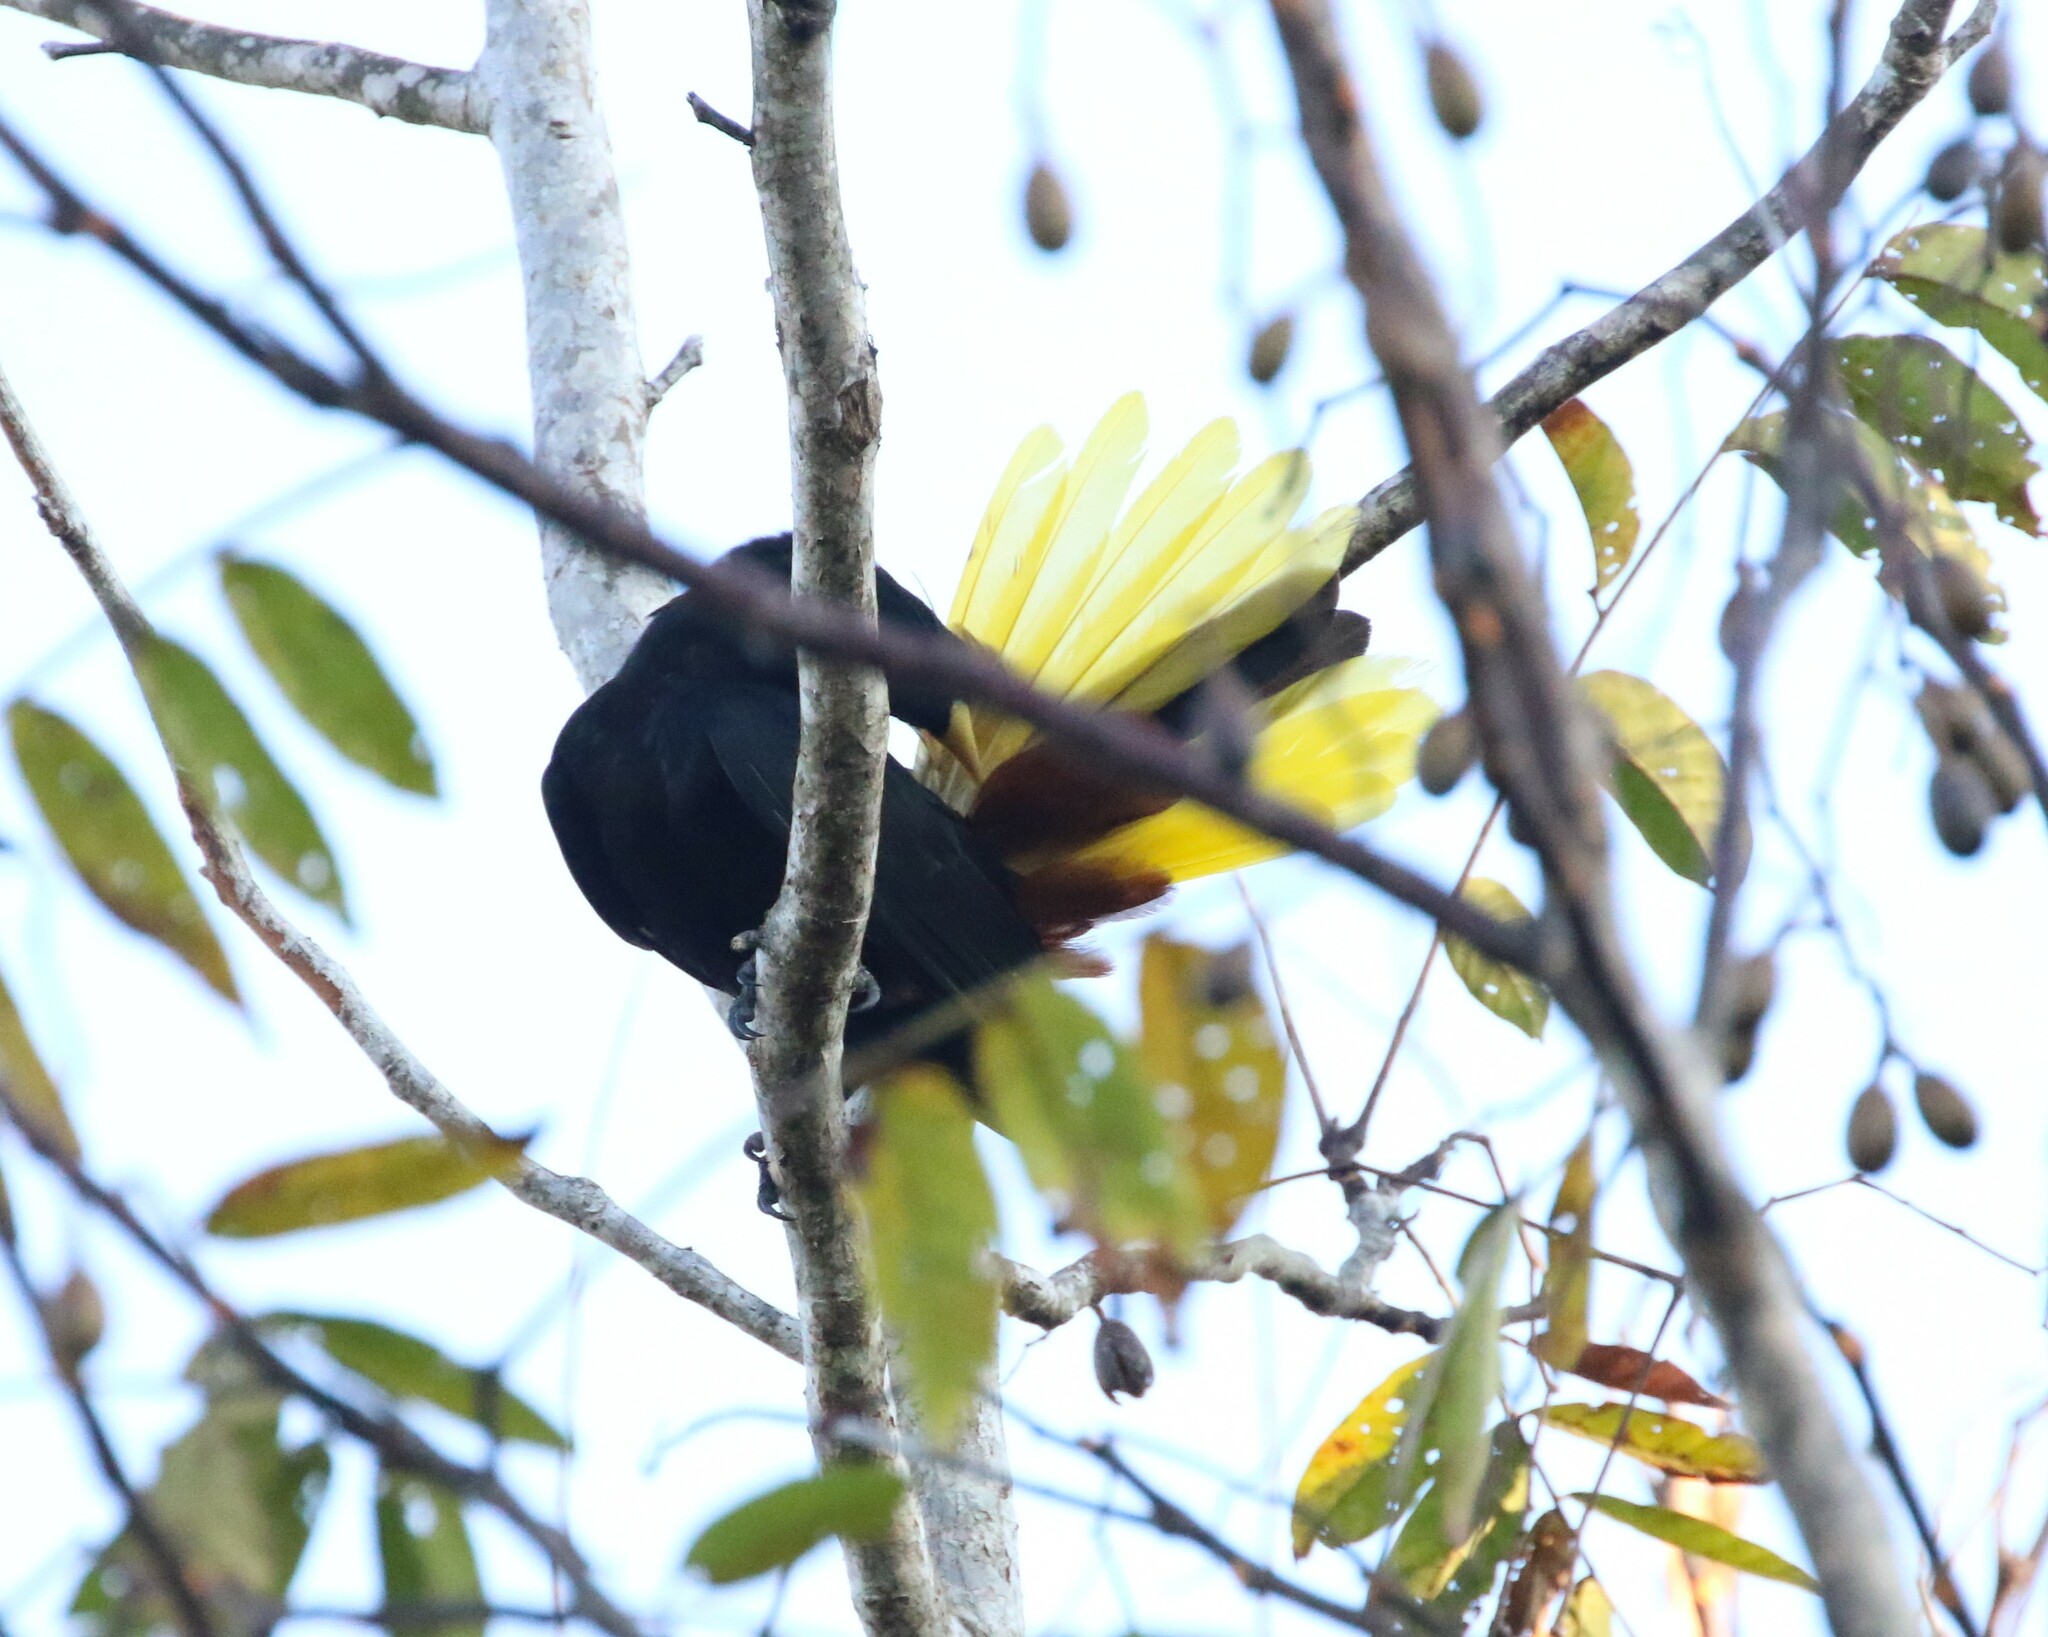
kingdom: Animalia
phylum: Chordata
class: Aves
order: Passeriformes
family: Icteridae
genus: Psarocolius
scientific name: Psarocolius wagleri
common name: Chestnut-headed oropendola
